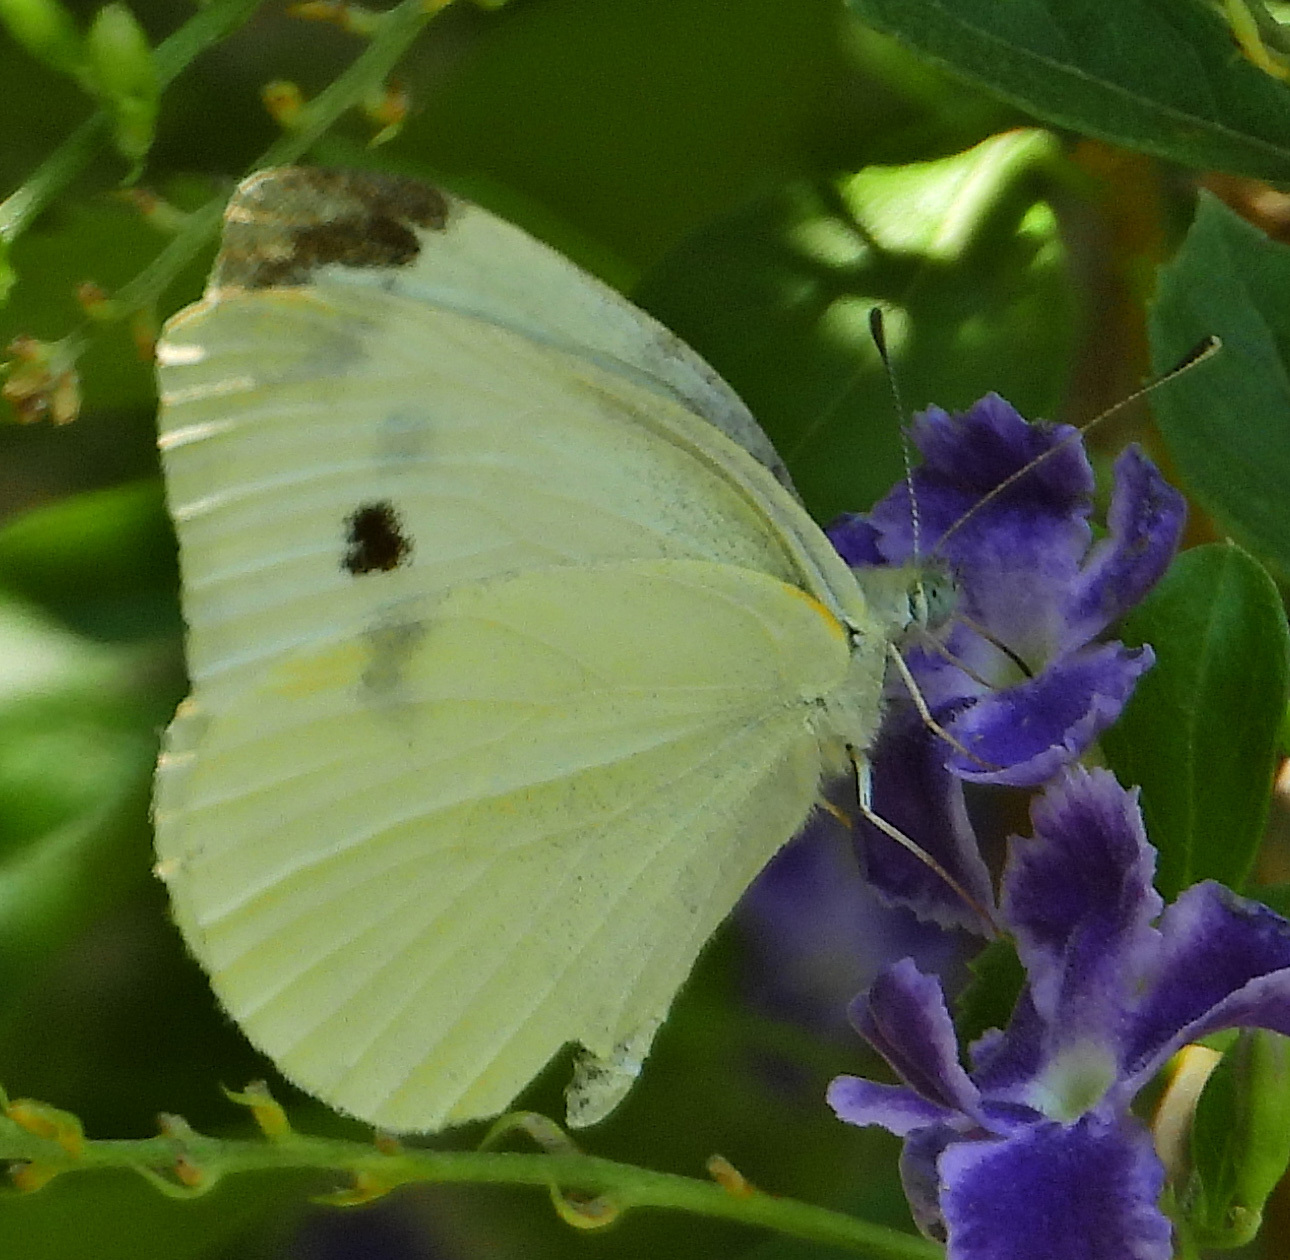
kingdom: Animalia
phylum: Arthropoda
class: Insecta
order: Lepidoptera
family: Pieridae
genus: Pieris
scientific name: Pieris rapae
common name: Small white
